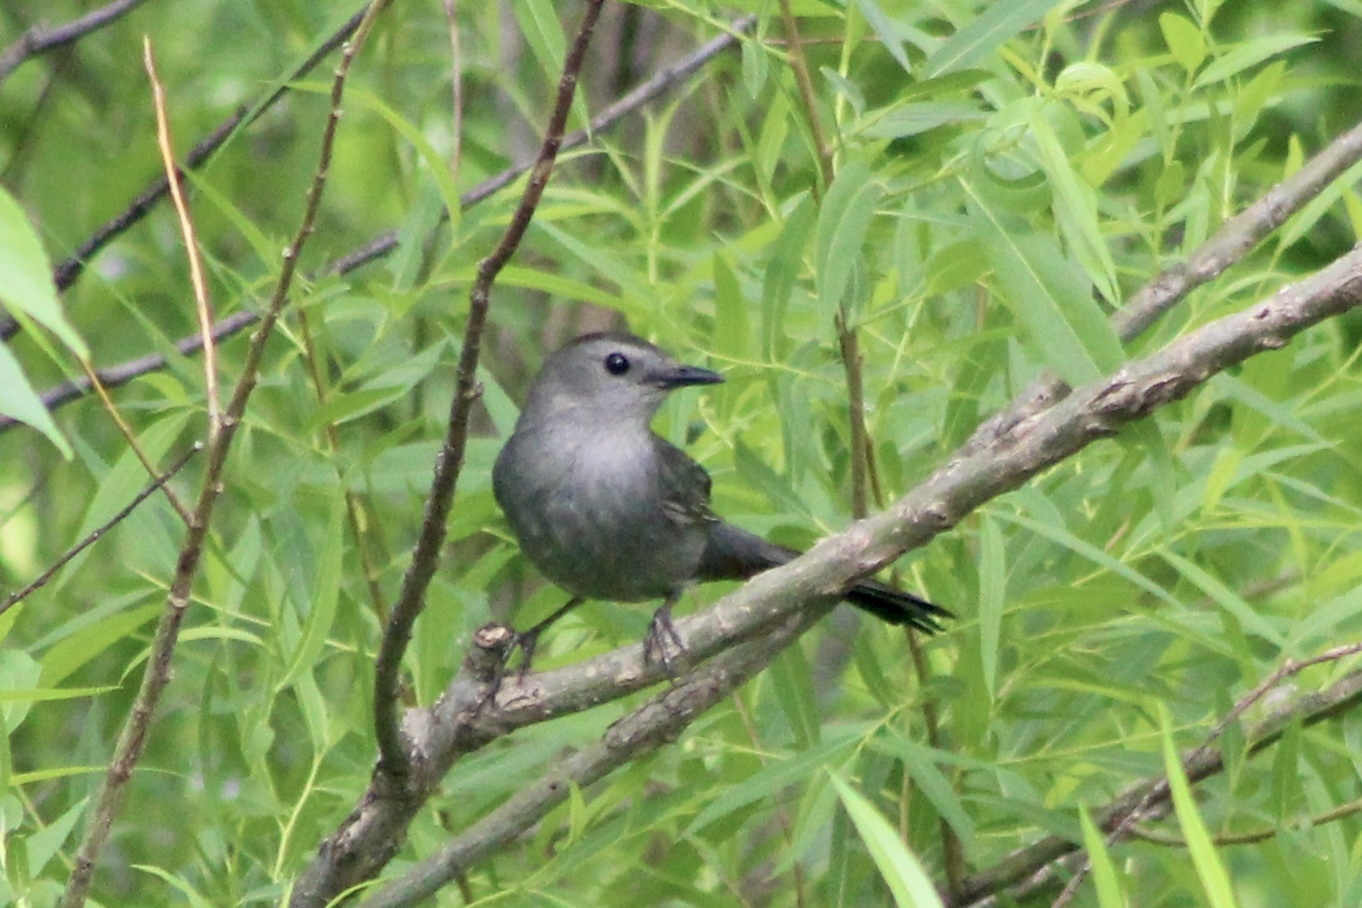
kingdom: Animalia
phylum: Chordata
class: Aves
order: Passeriformes
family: Mimidae
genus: Dumetella
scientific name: Dumetella carolinensis
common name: Gray catbird
